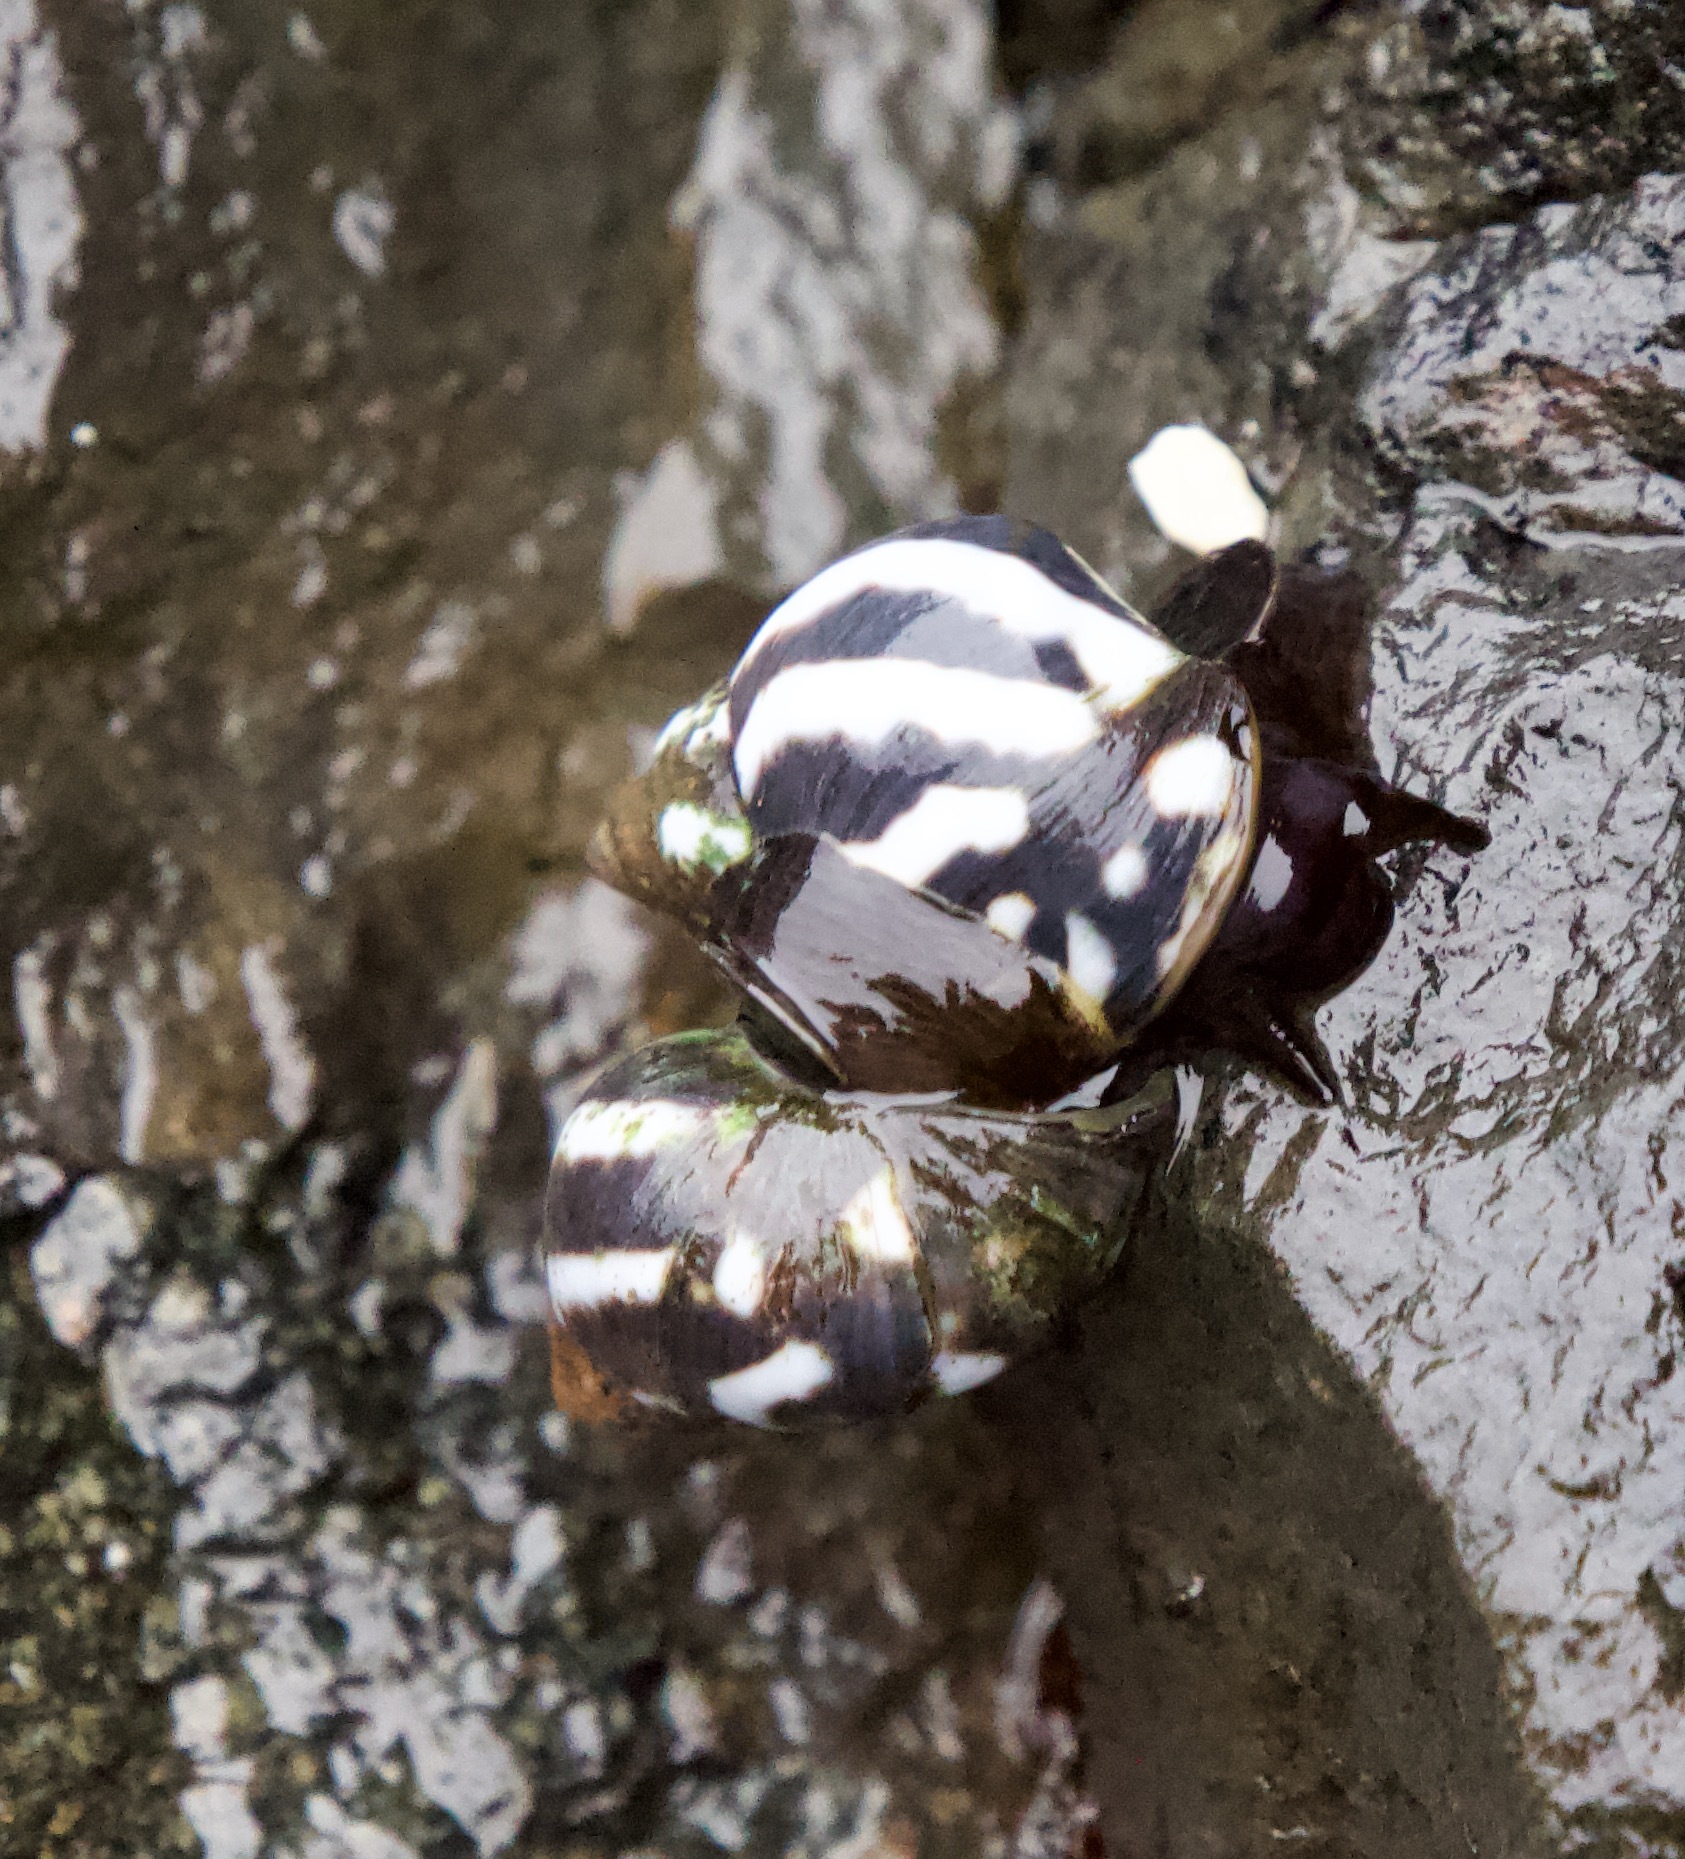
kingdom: Animalia
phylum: Mollusca
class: Gastropoda
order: Littorinimorpha
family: Littorinidae
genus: Echinolittorina
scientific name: Echinolittorina peruviana
